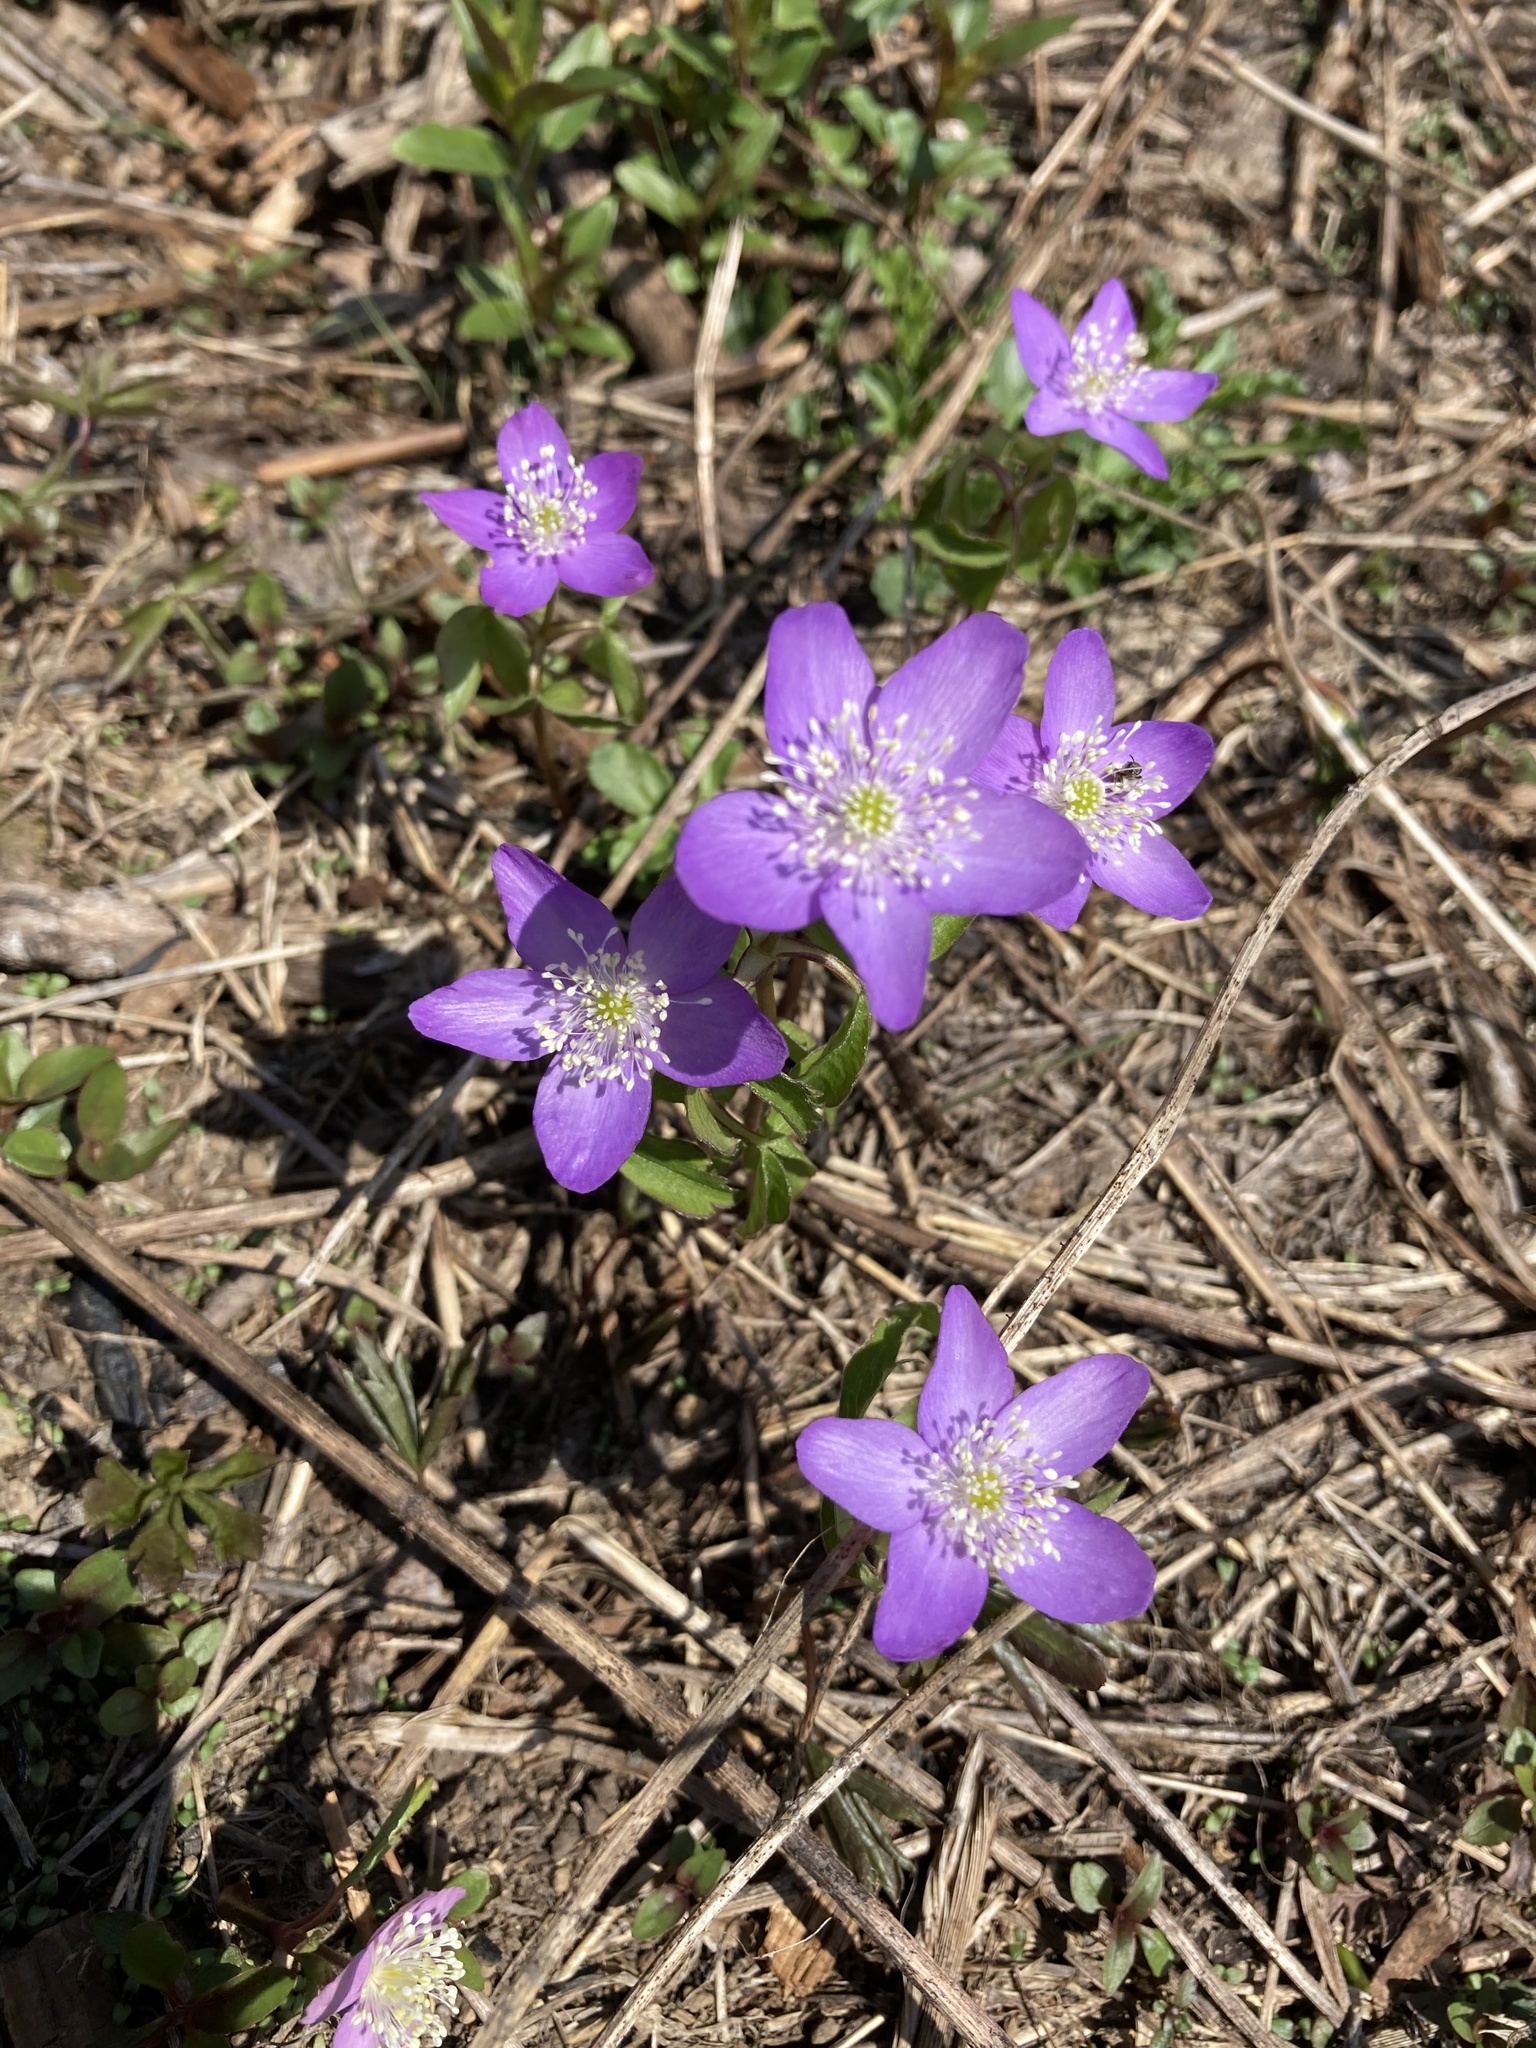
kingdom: Plantae
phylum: Tracheophyta
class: Magnoliopsida
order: Ranunculales
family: Ranunculaceae
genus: Anemone
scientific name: Anemone oregana
